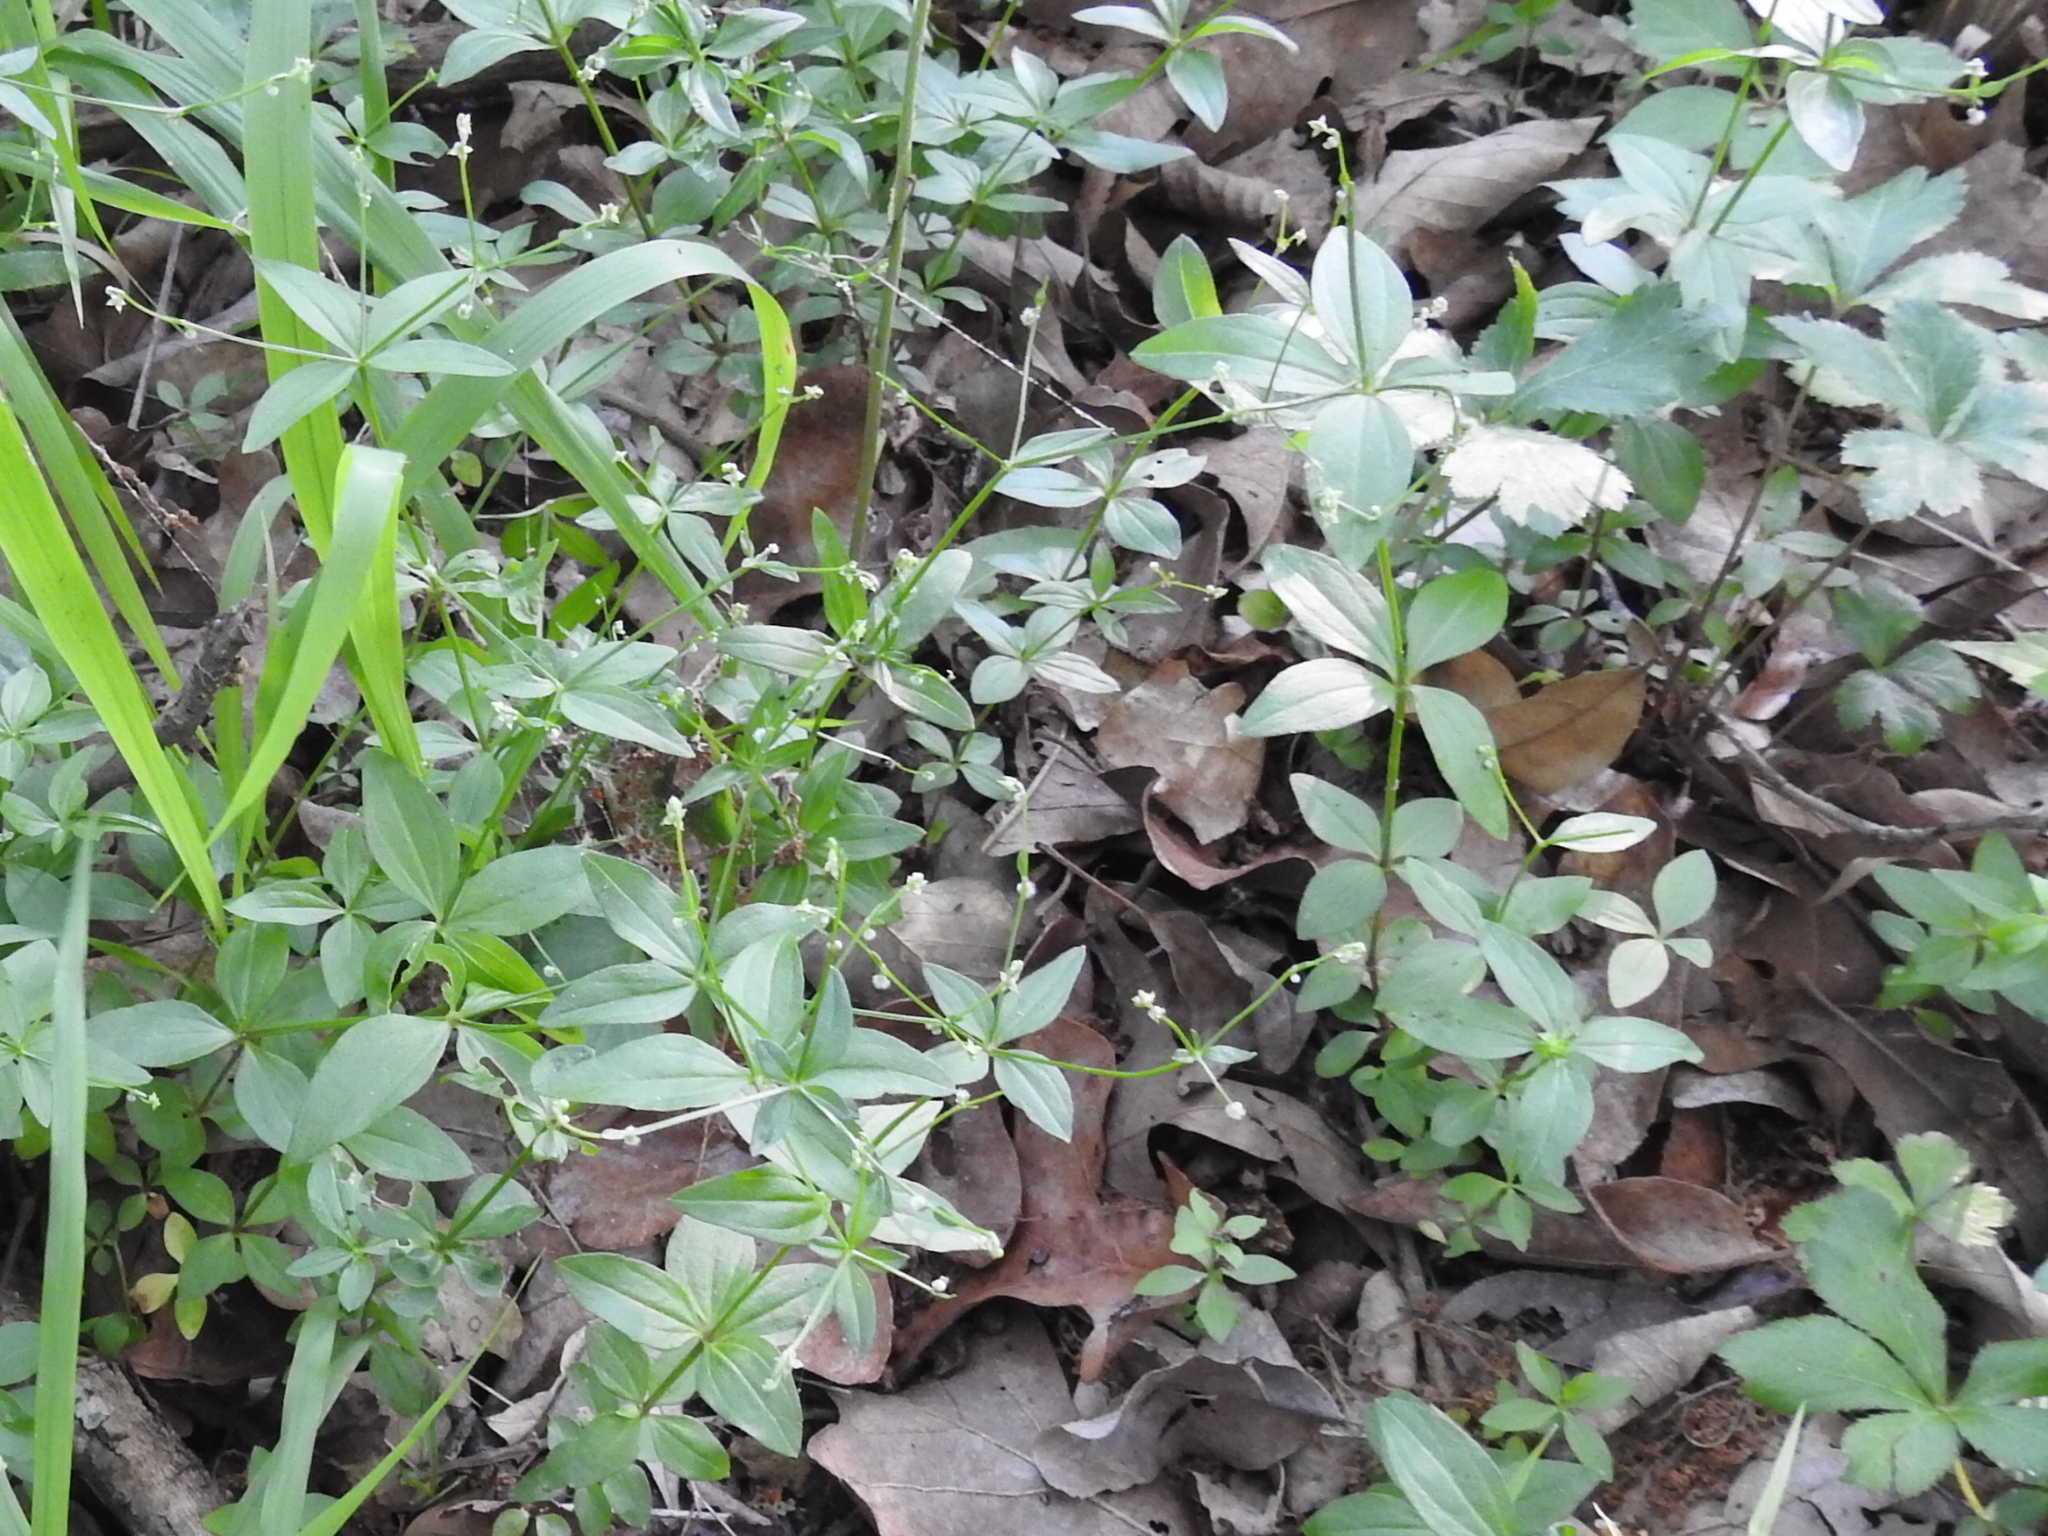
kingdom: Plantae
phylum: Tracheophyta
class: Magnoliopsida
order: Gentianales
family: Rubiaceae
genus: Galium
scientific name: Galium circaezans
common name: Forest bedstraw
